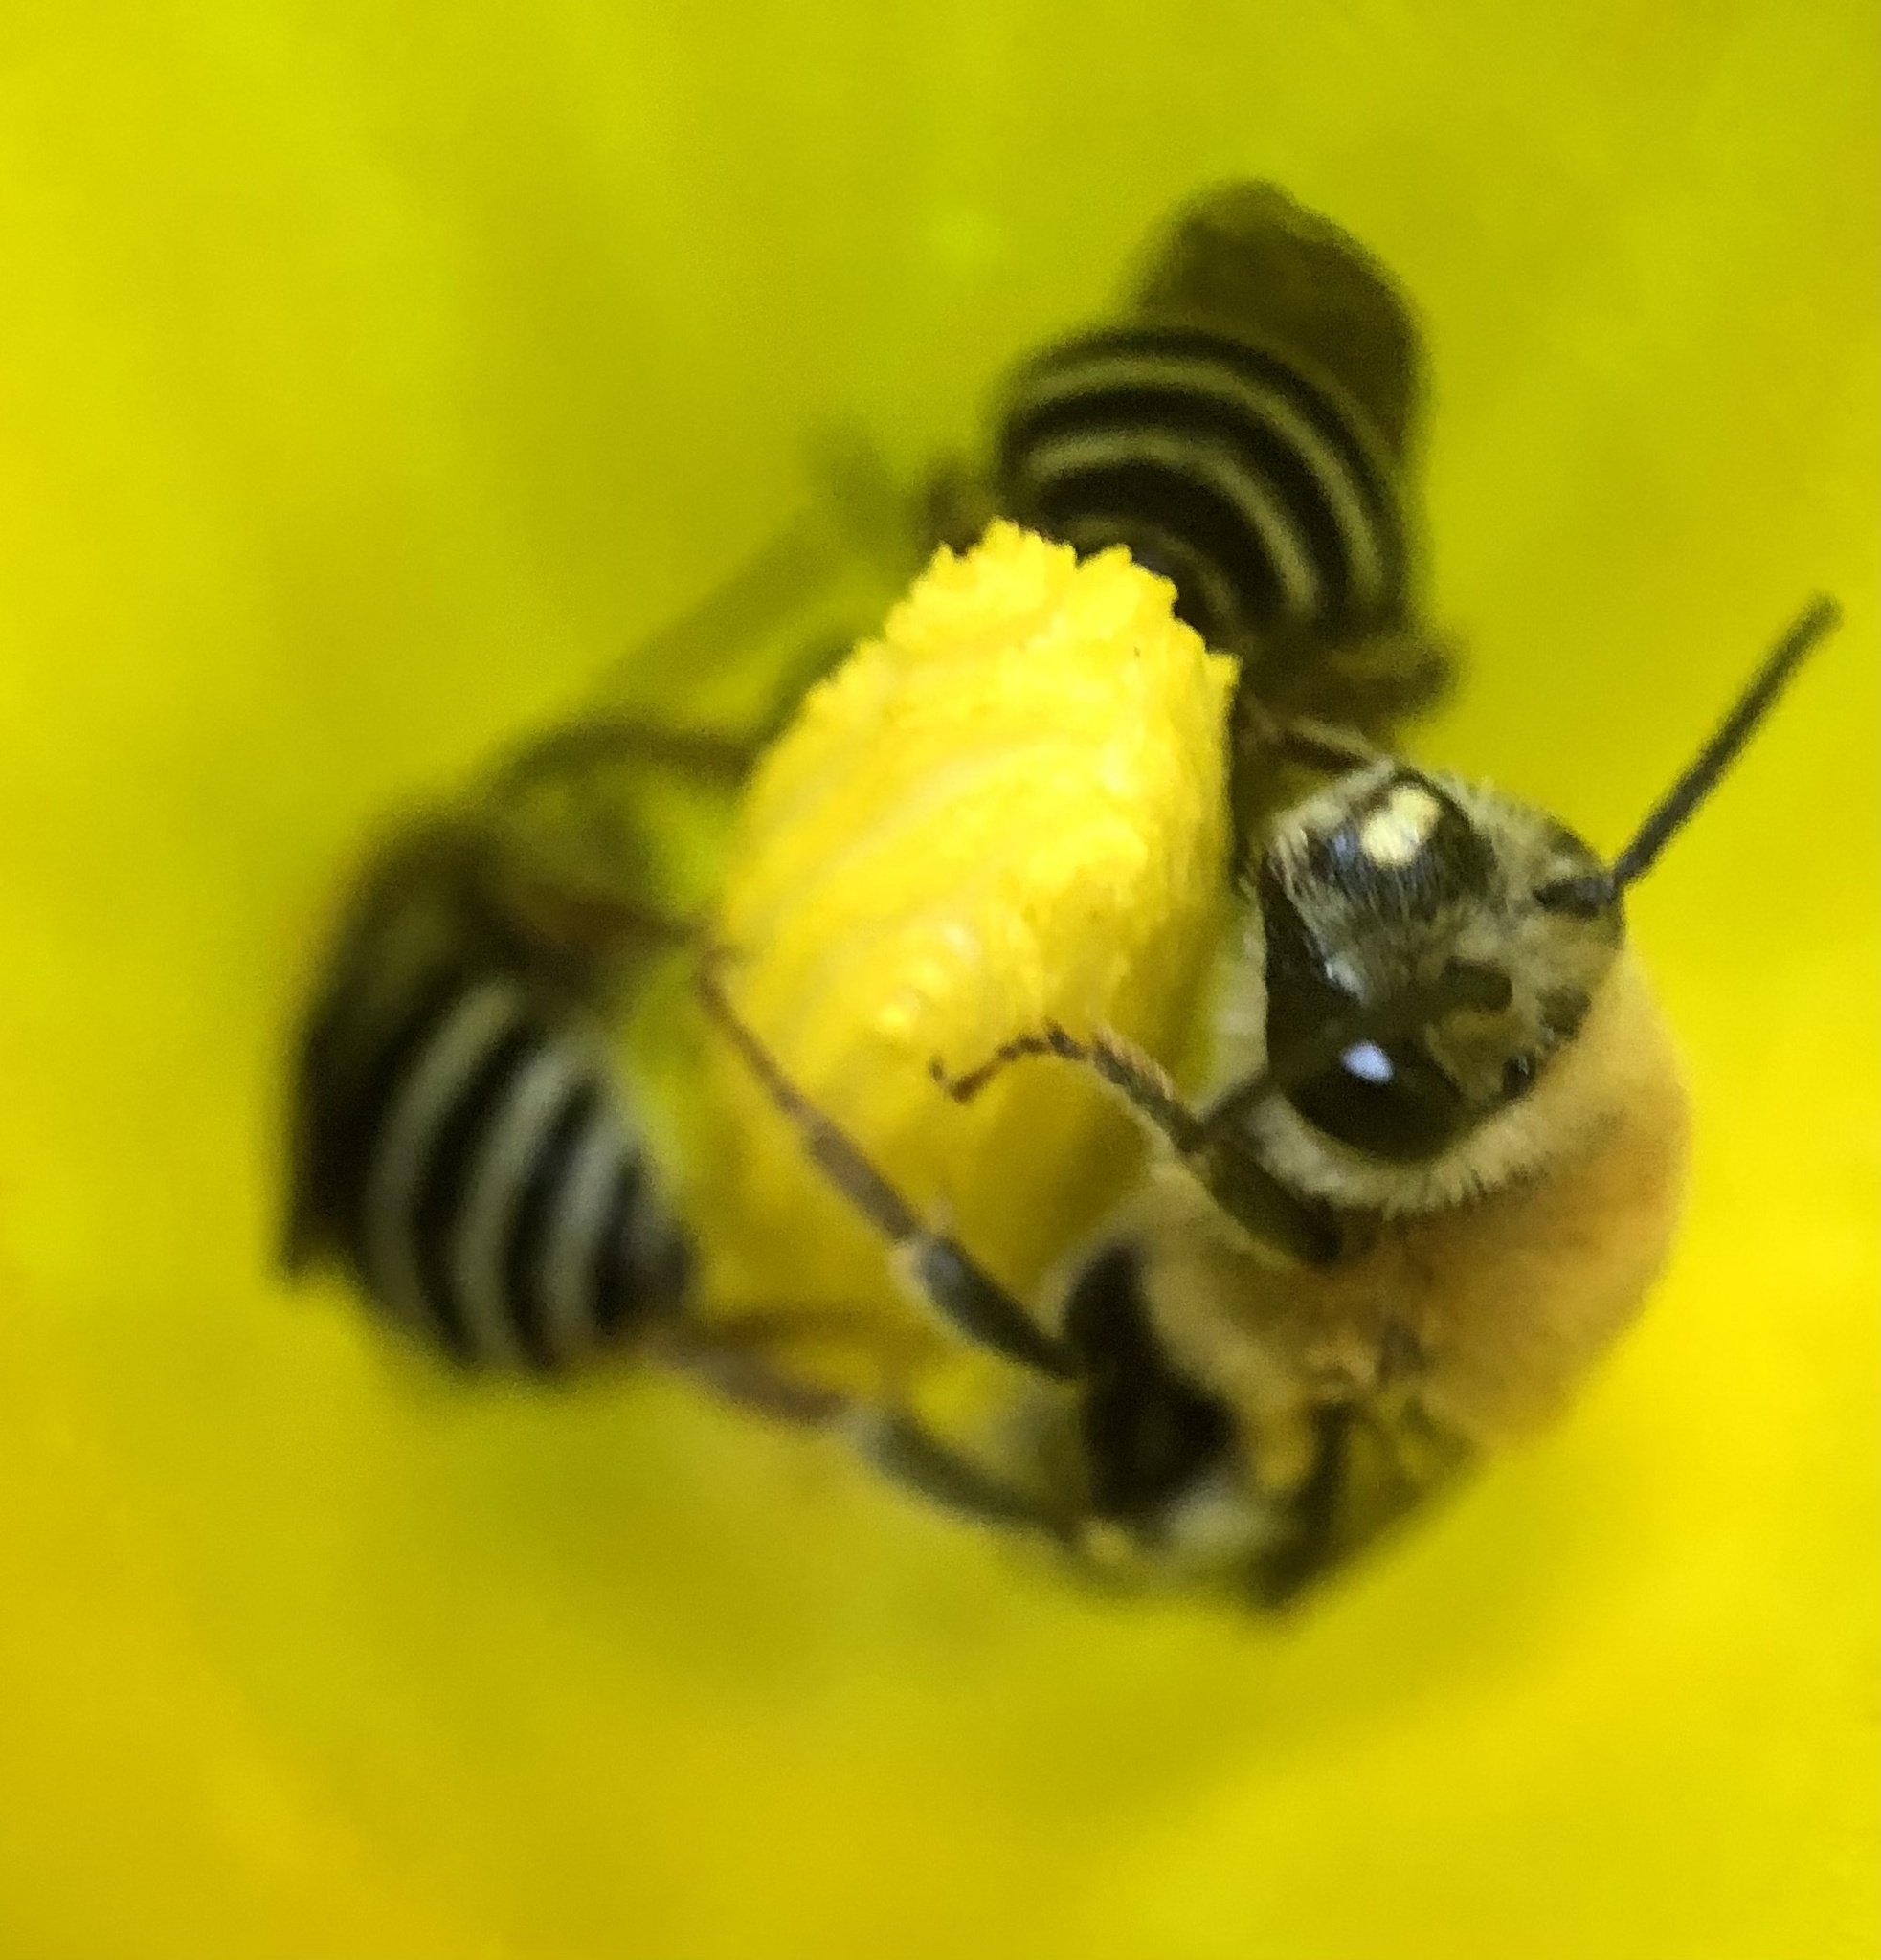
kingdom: Animalia
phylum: Arthropoda
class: Insecta
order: Hymenoptera
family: Apidae
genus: Peponapis
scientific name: Peponapis pruinosa
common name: Pruinose squash bee
